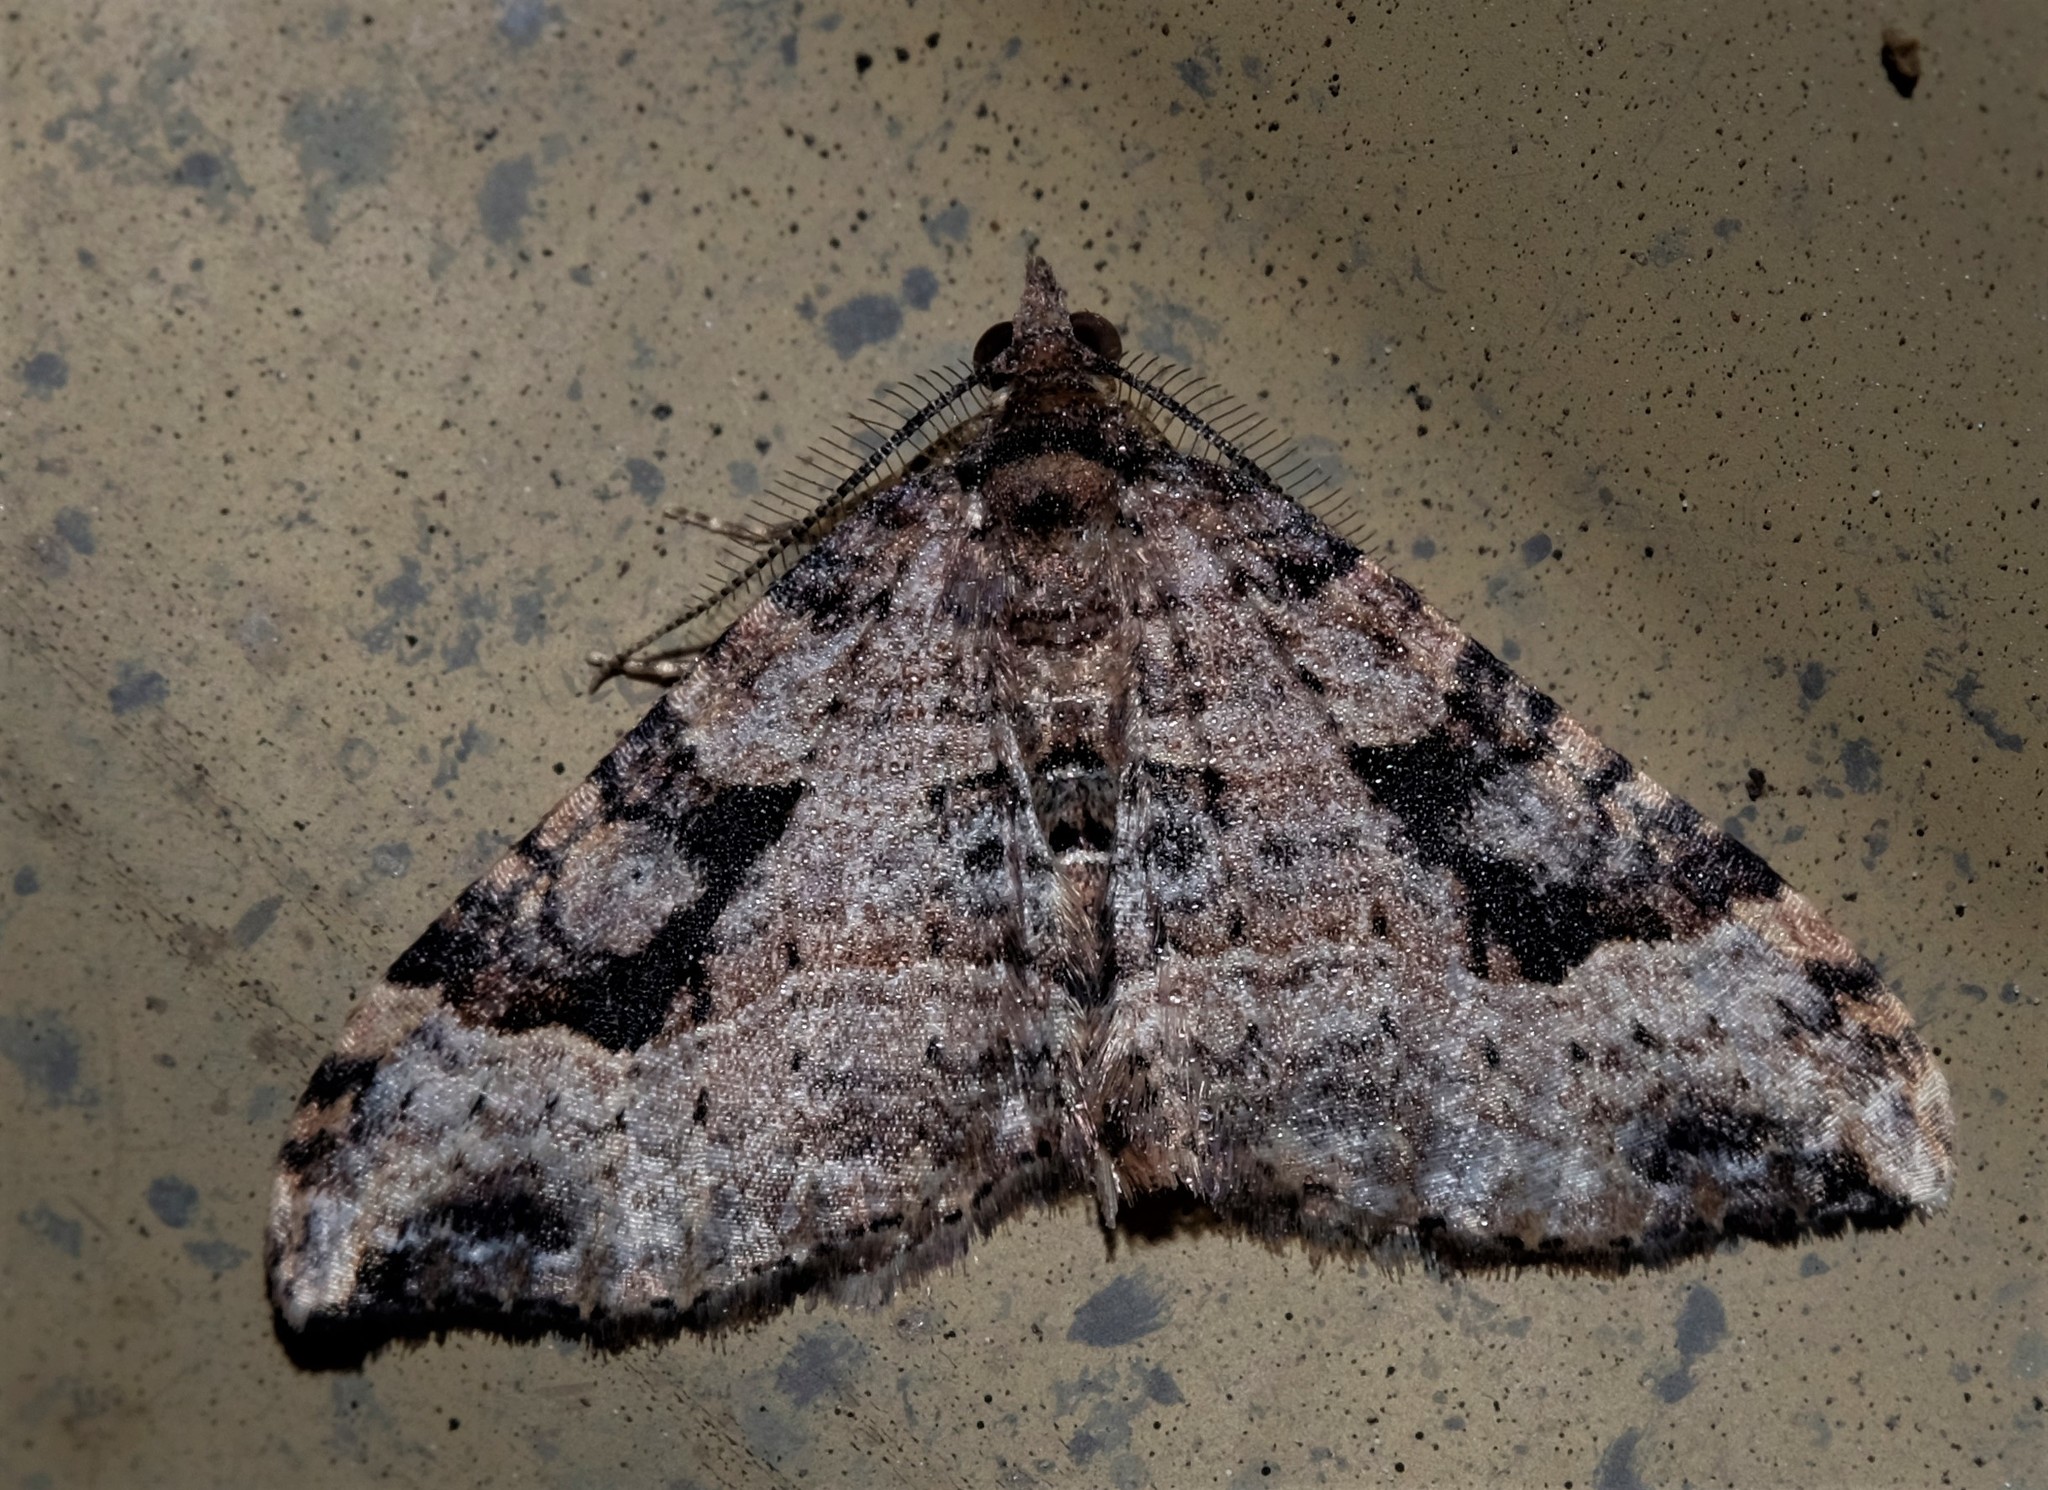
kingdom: Animalia
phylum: Arthropoda
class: Insecta
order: Lepidoptera
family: Geometridae
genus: Epyaxa
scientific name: Epyaxa sodaliata
